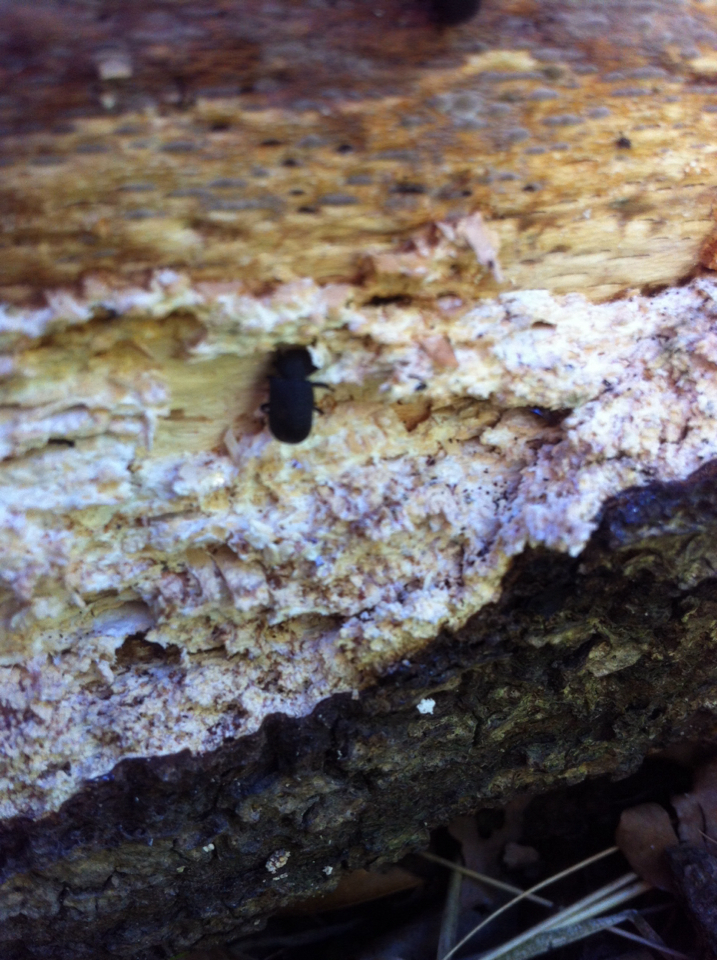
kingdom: Animalia
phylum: Arthropoda
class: Insecta
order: Coleoptera
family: Tenebrionidae
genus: Bolitophagus
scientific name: Bolitophagus reticulatus
